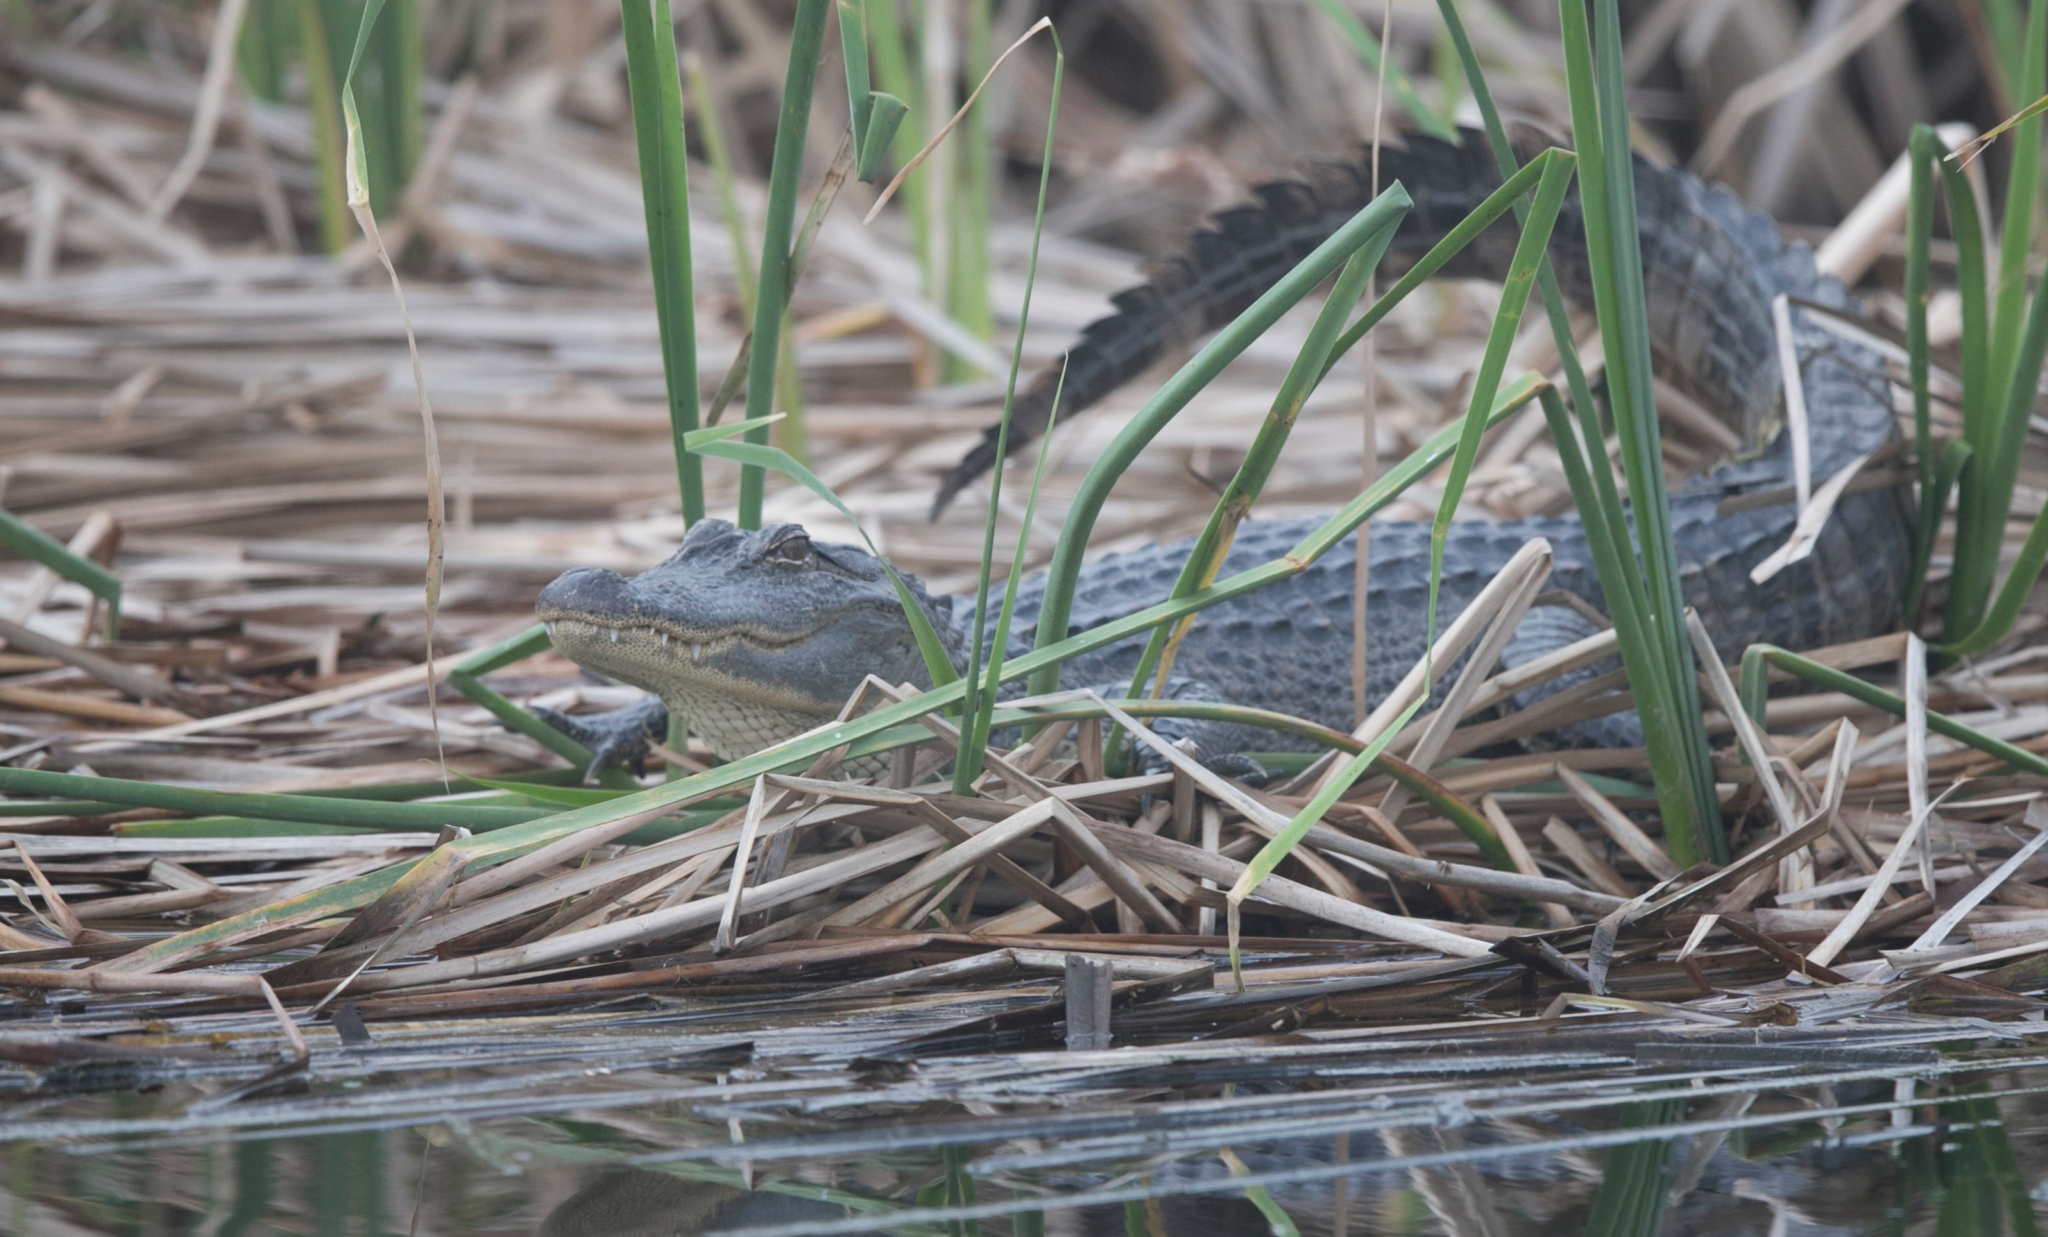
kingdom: Animalia
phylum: Chordata
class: Crocodylia
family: Alligatoridae
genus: Alligator
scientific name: Alligator mississippiensis
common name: American alligator
